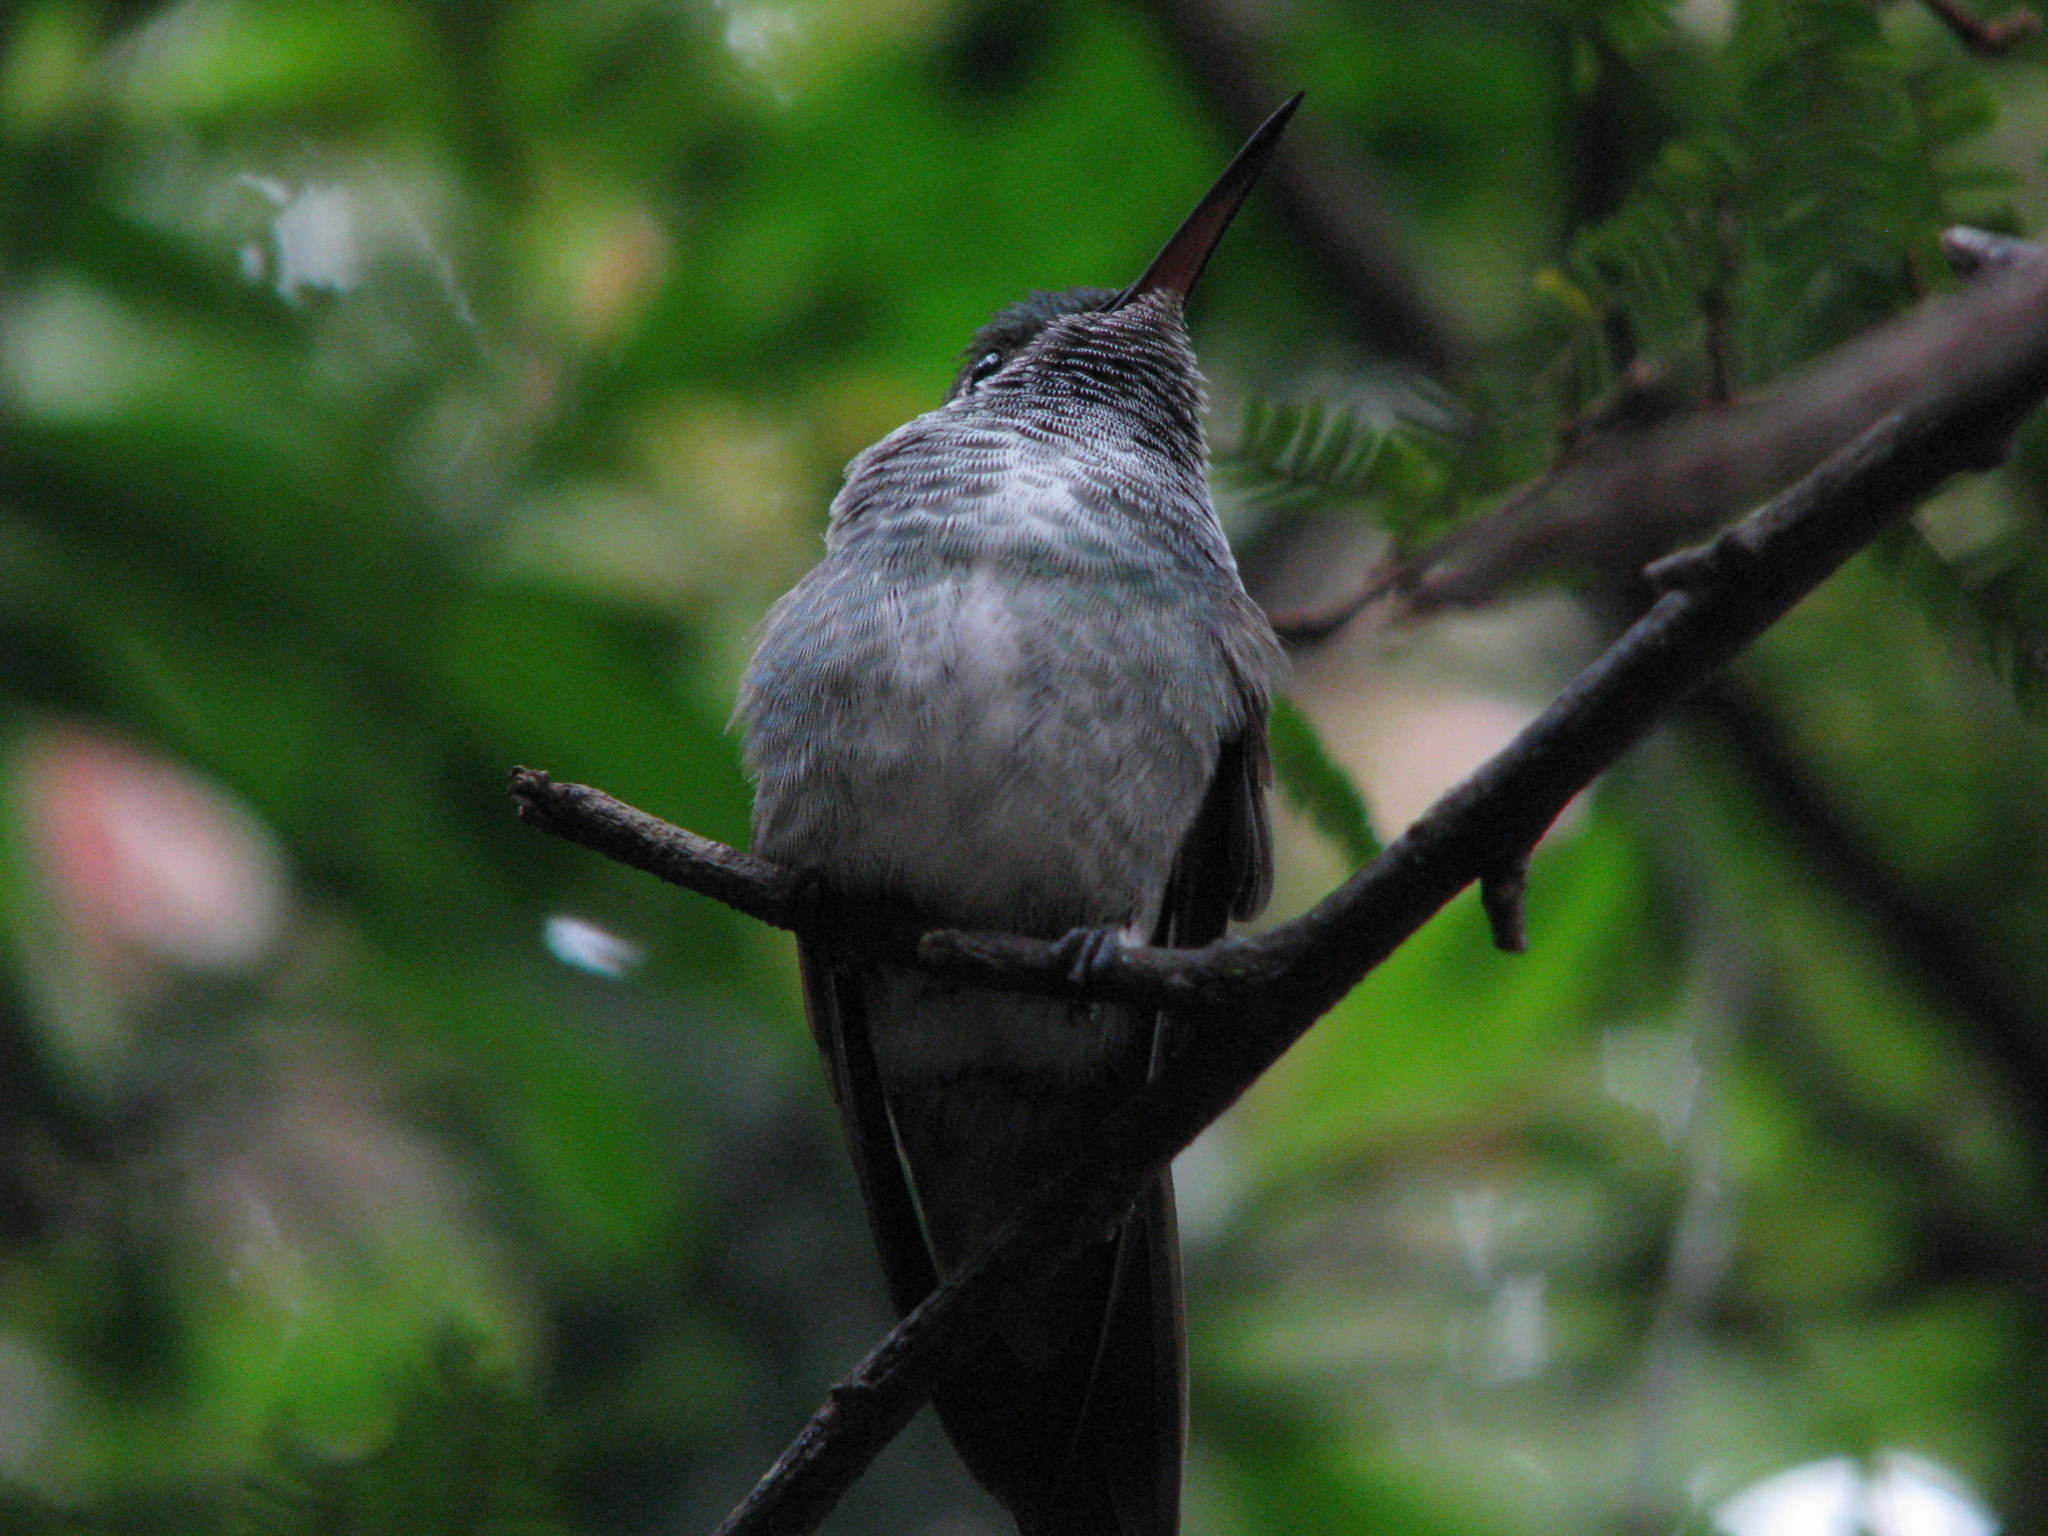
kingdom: Animalia
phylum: Chordata
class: Aves
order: Apodiformes
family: Trochilidae
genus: Chrysuronia
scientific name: Chrysuronia versicolor
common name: Versicolored emerald
